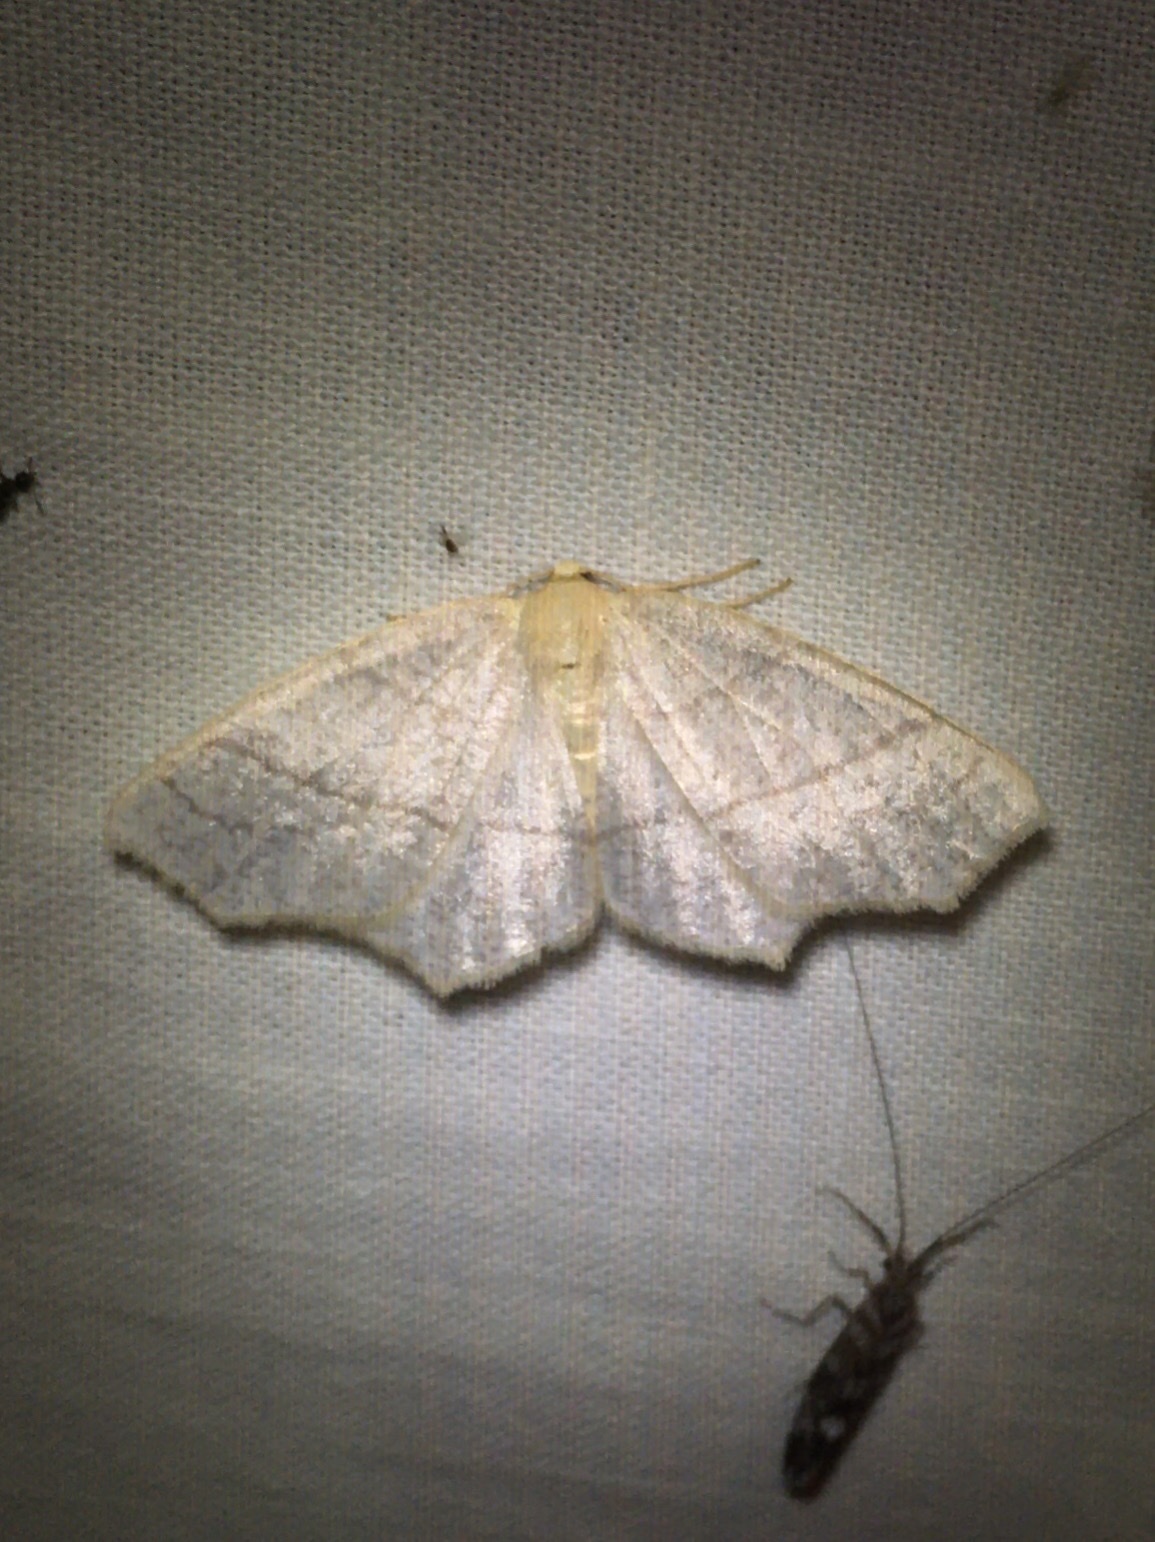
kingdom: Animalia
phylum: Arthropoda
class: Insecta
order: Lepidoptera
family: Geometridae
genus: Besma
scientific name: Besma endropiaria
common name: Straw besma
